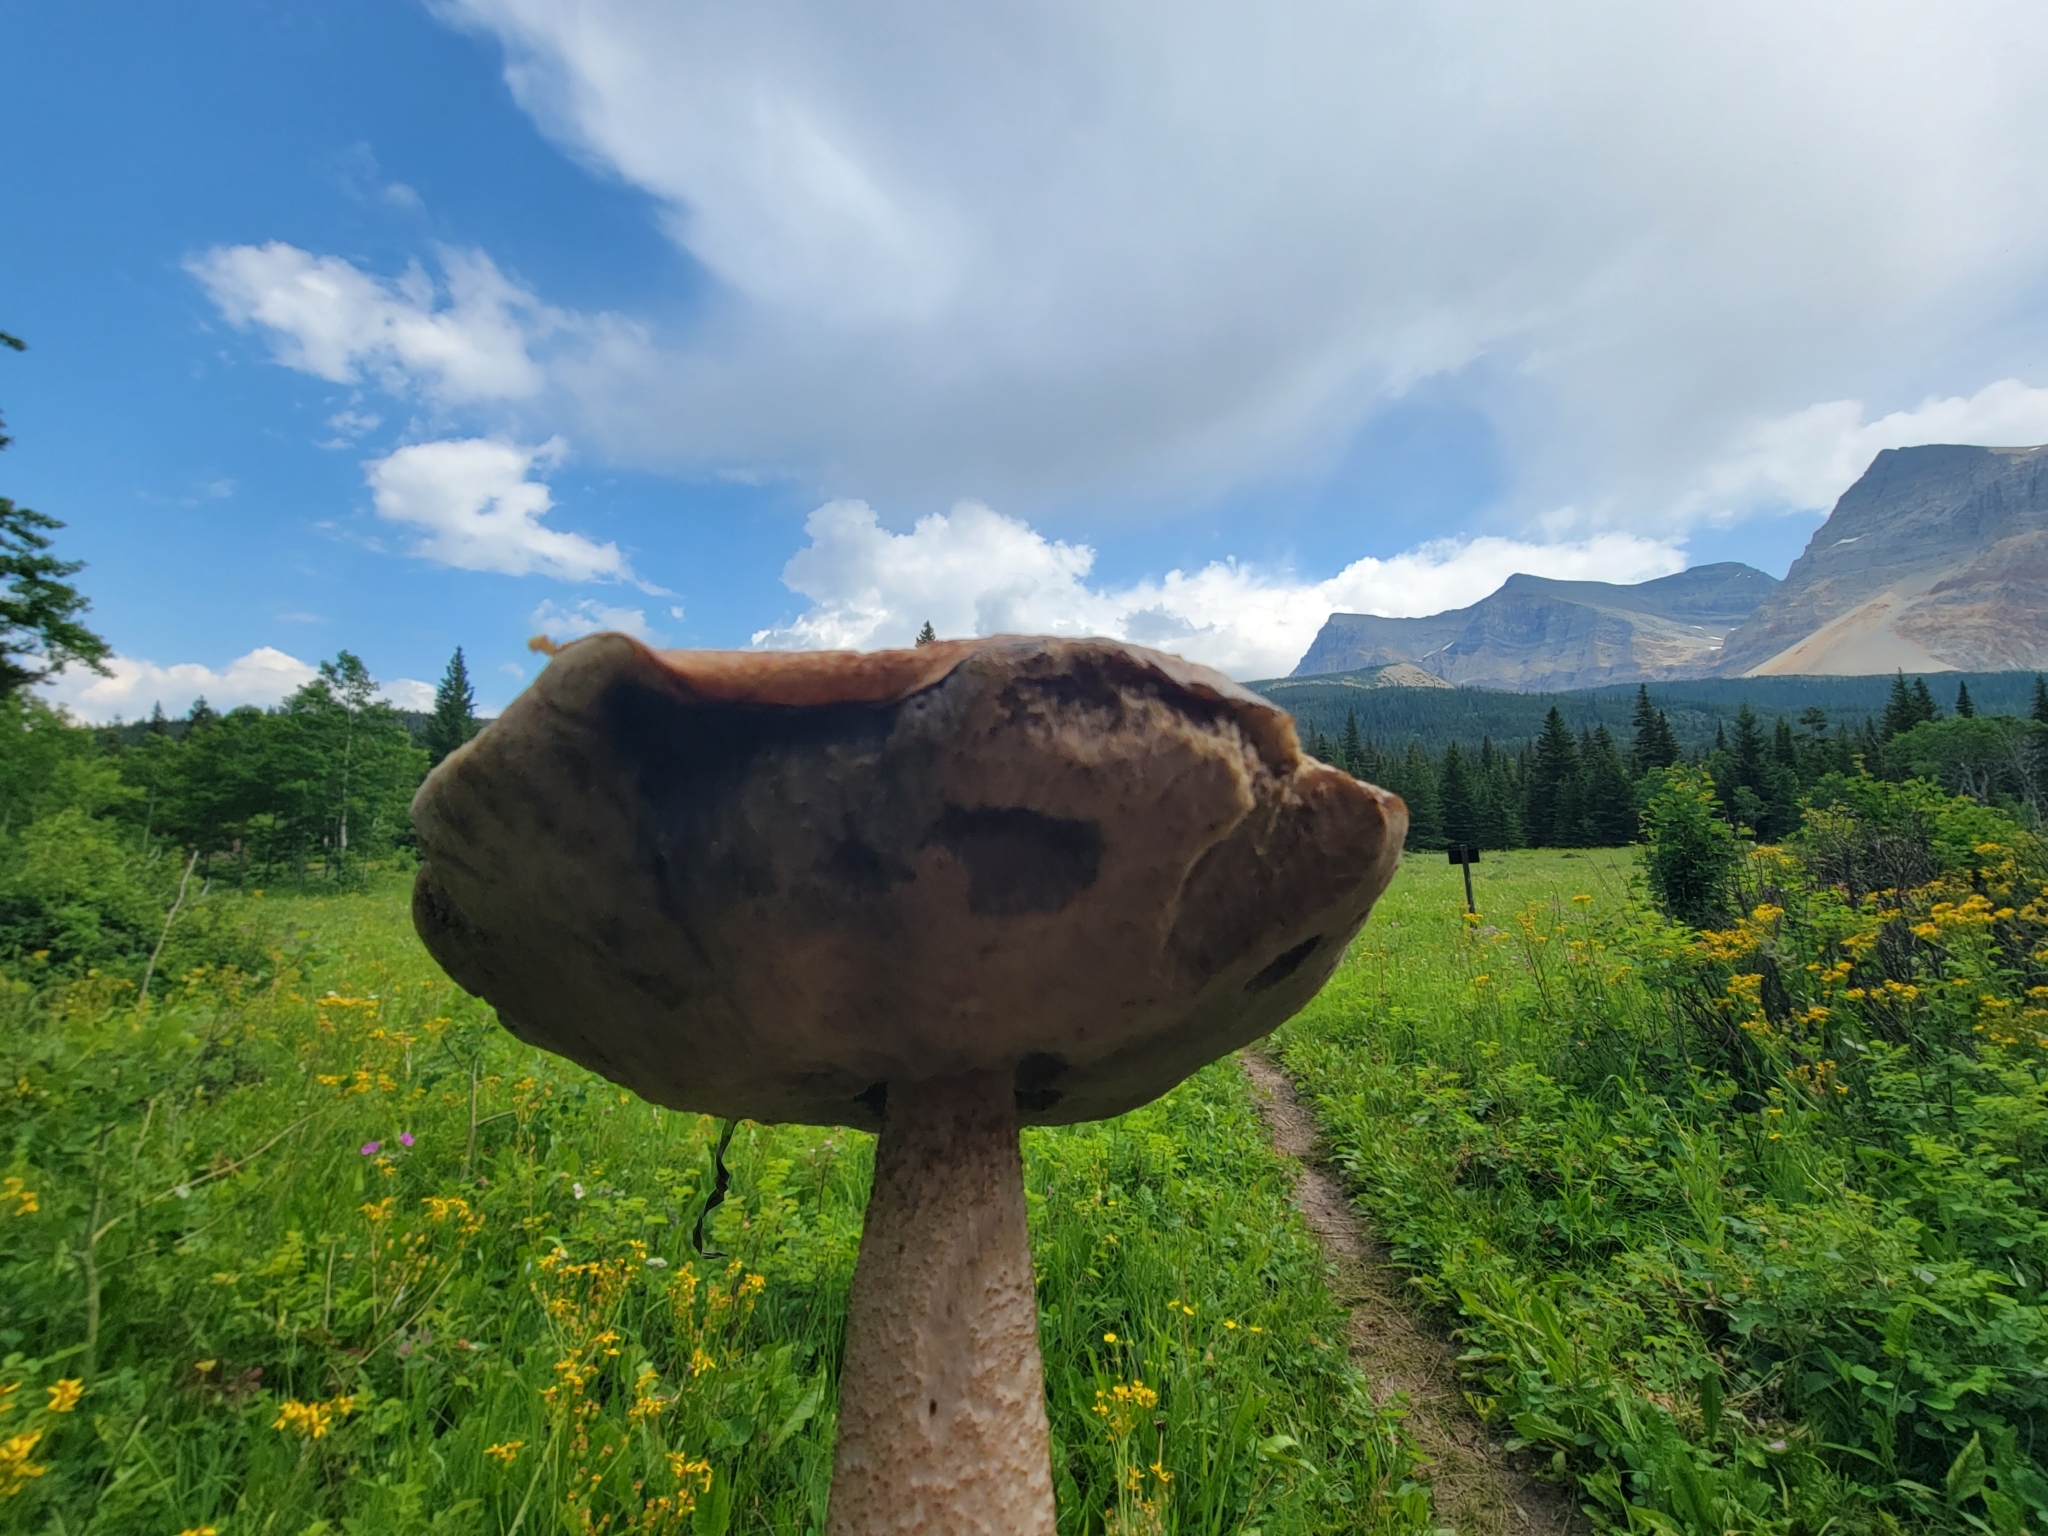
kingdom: Fungi
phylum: Basidiomycota
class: Agaricomycetes
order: Boletales
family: Boletaceae
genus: Leccinum
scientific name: Leccinum insigne
